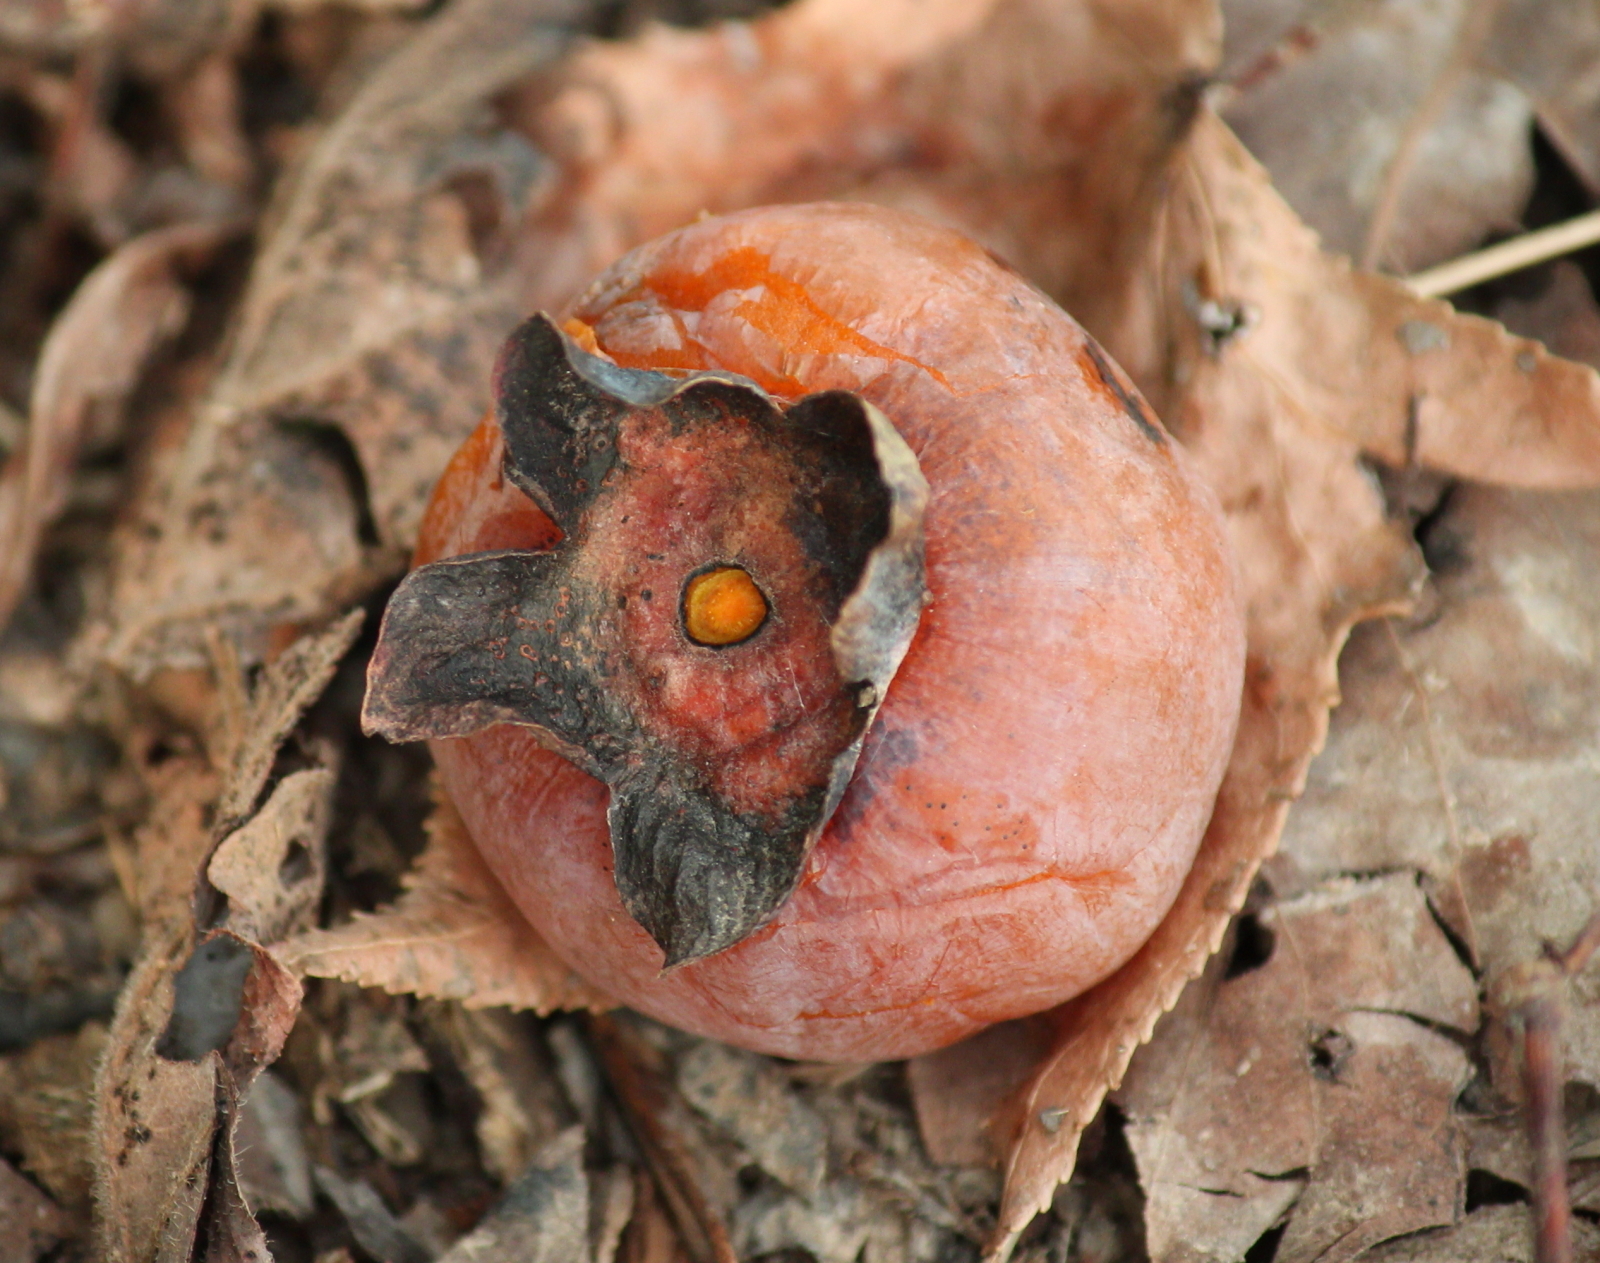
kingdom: Plantae
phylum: Tracheophyta
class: Magnoliopsida
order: Ericales
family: Ebenaceae
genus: Diospyros
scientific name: Diospyros virginiana
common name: Persimmon
